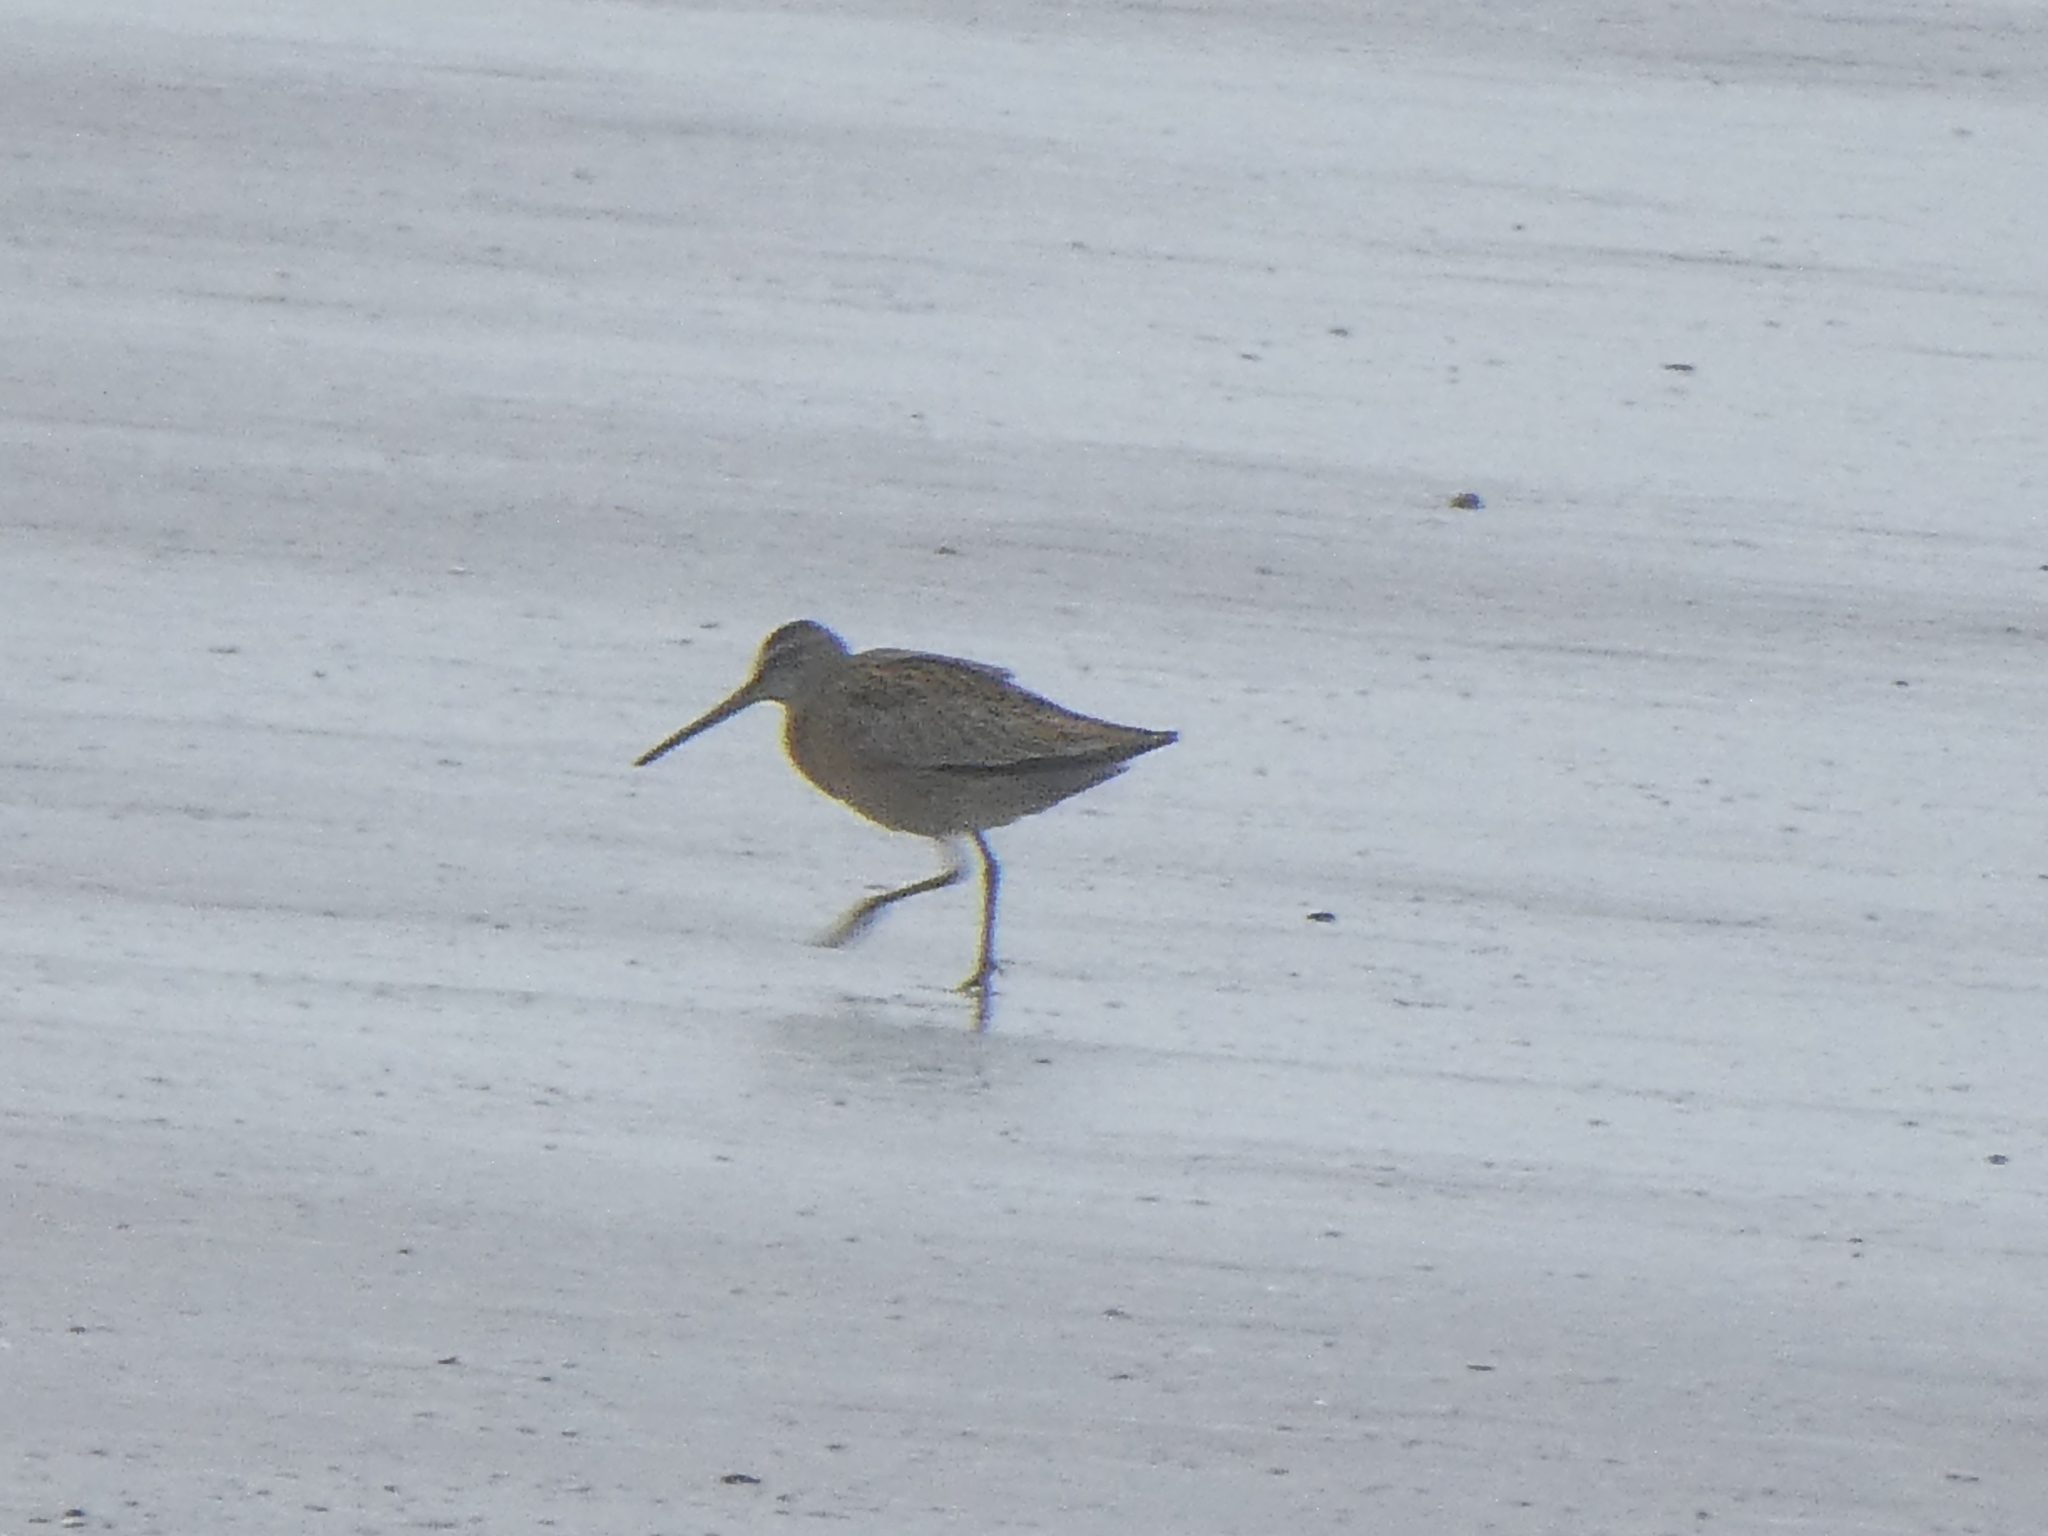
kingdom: Animalia
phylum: Chordata
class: Aves
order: Charadriiformes
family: Scolopacidae
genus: Limnodromus
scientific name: Limnodromus griseus
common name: Short-billed dowitcher
